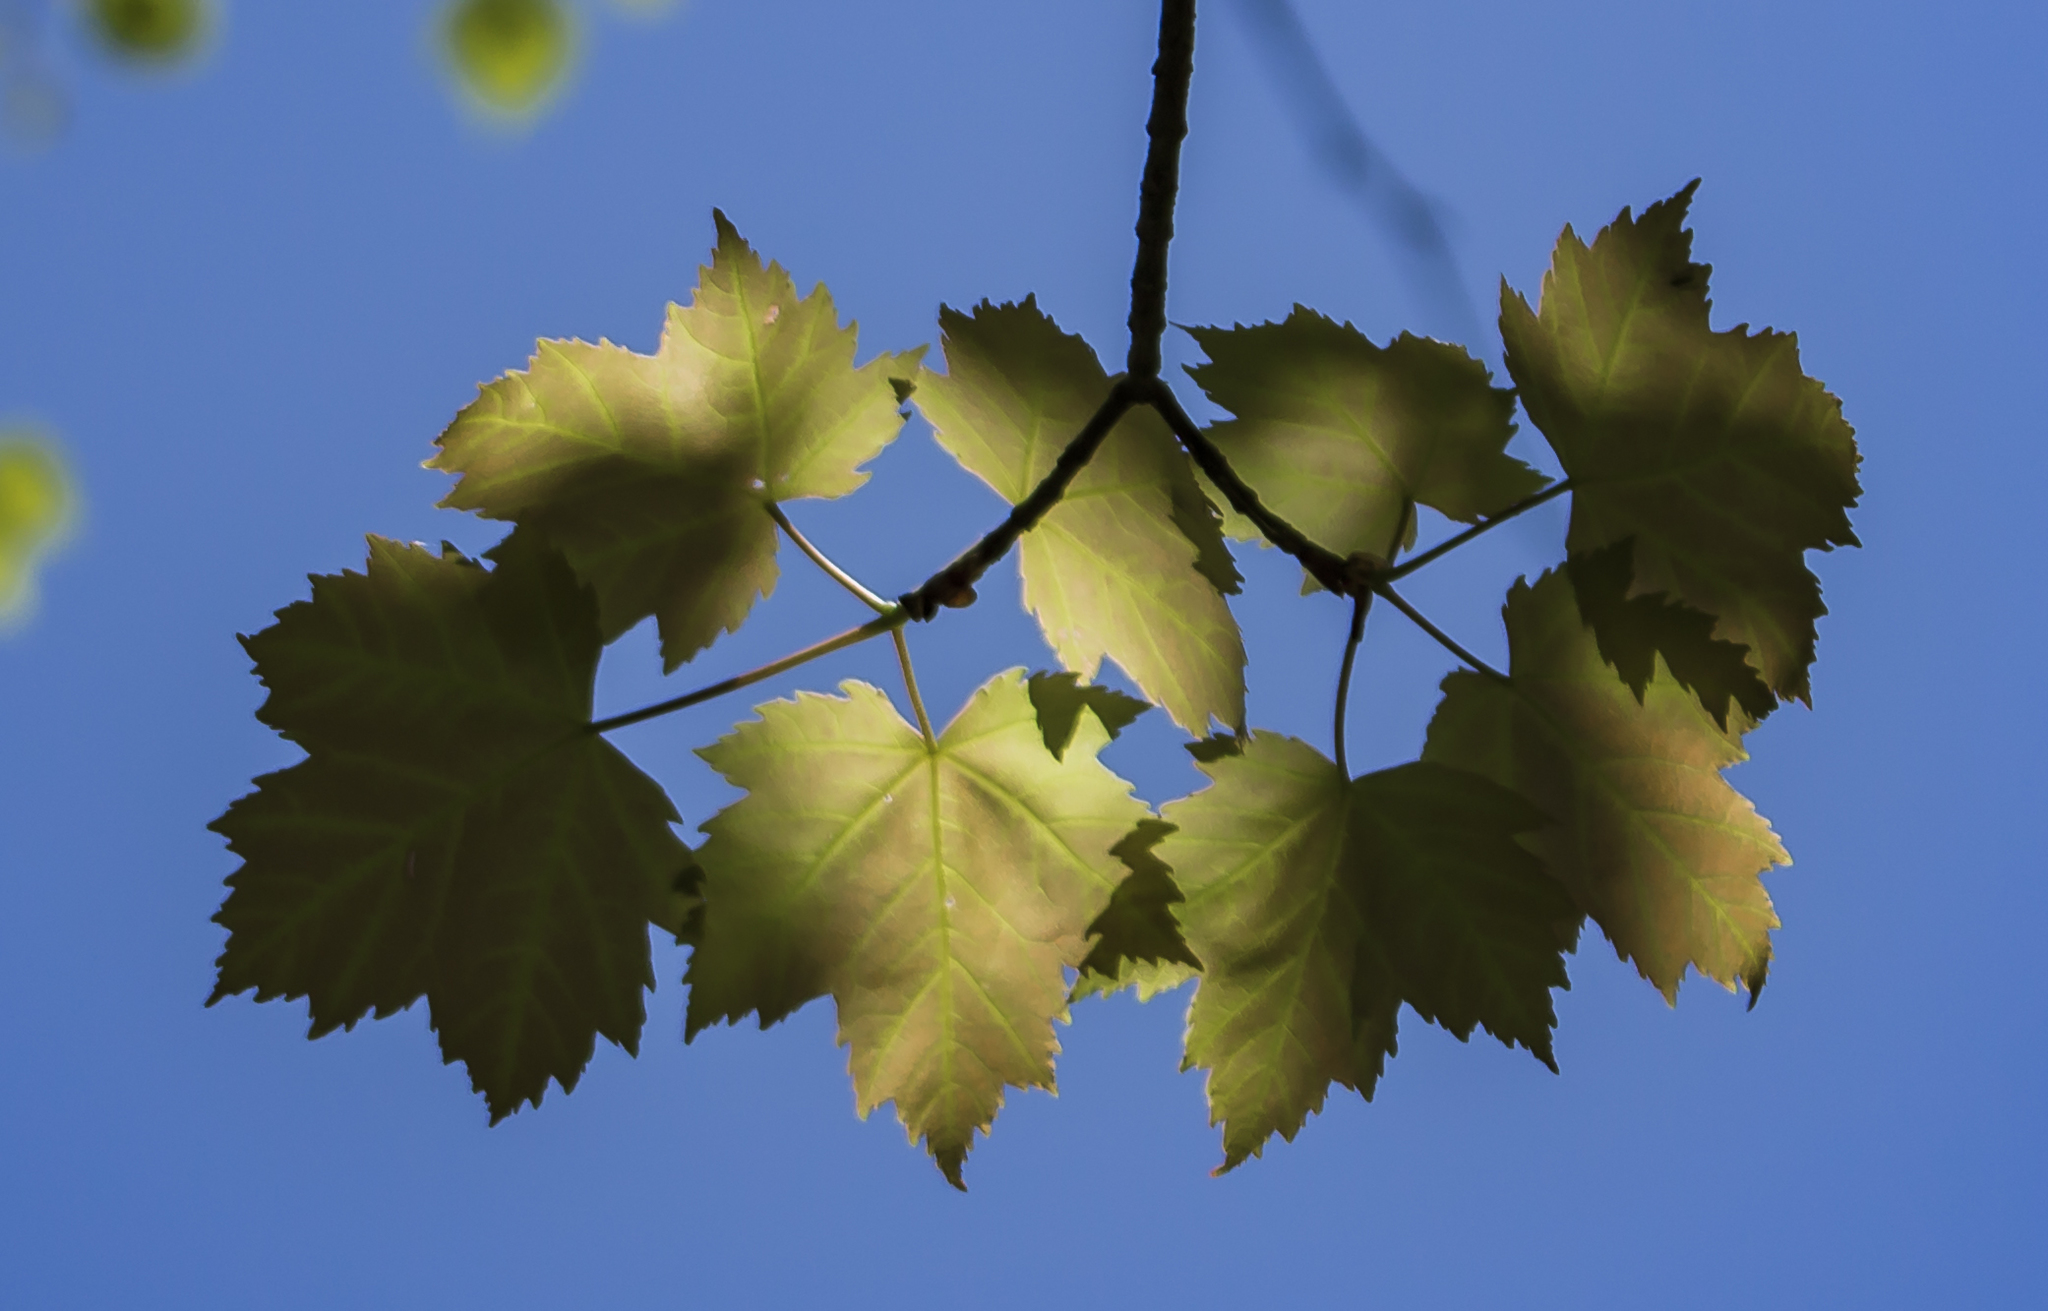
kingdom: Plantae
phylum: Tracheophyta
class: Magnoliopsida
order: Sapindales
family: Sapindaceae
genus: Acer
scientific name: Acer rubrum
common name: Red maple
